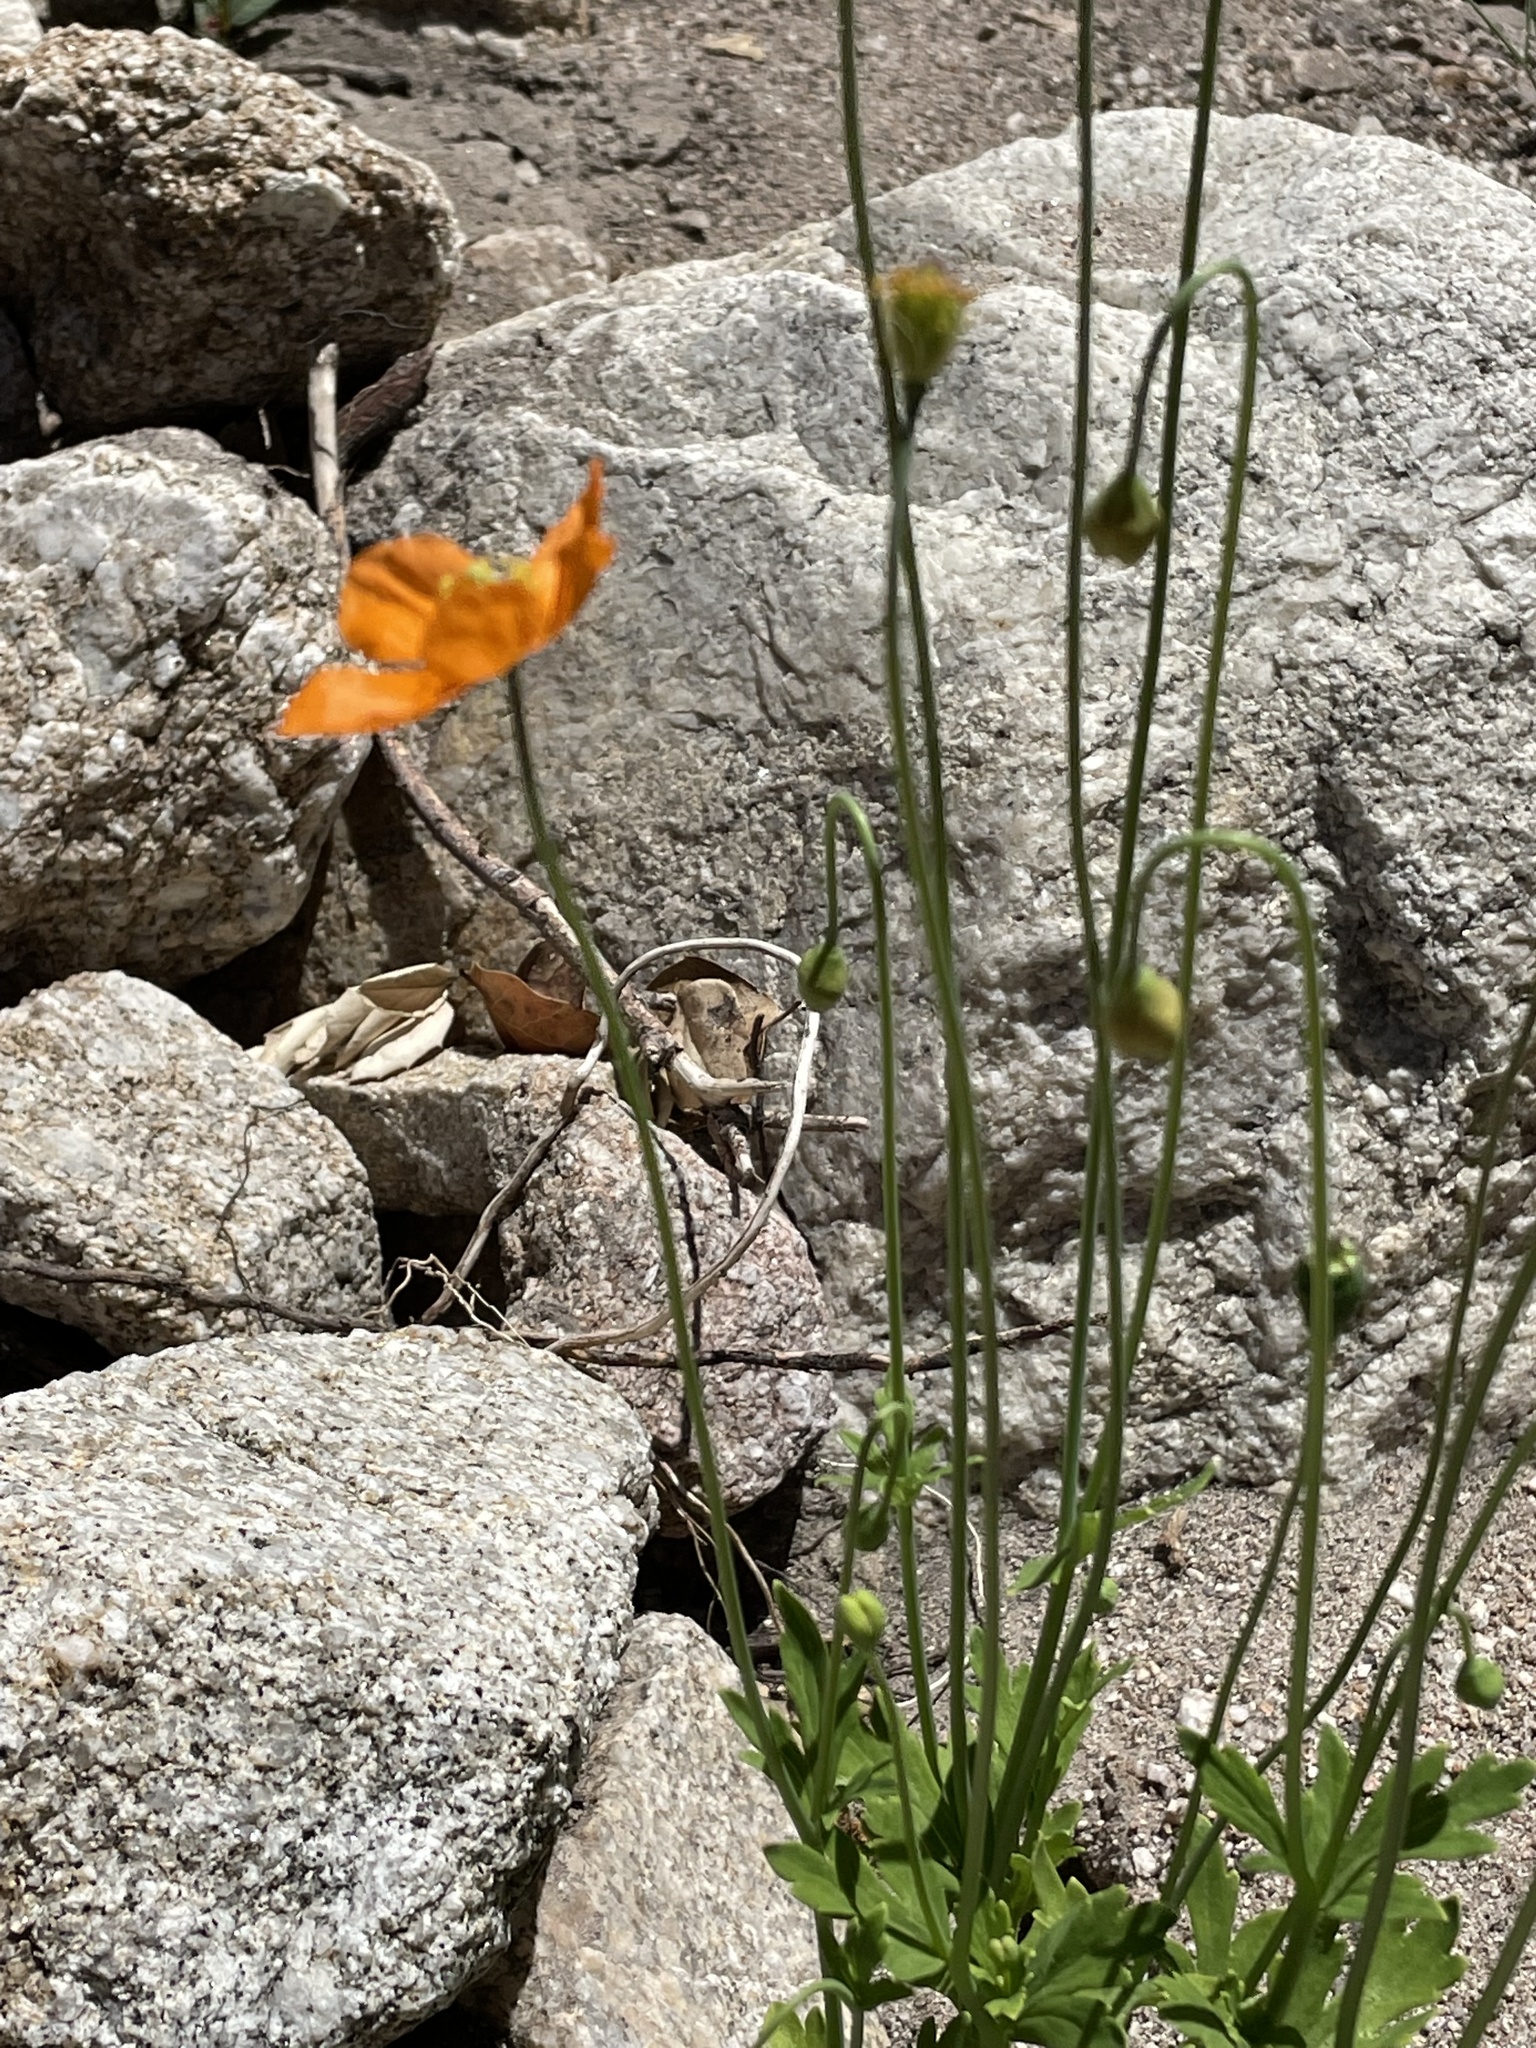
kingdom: Plantae
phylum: Tracheophyta
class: Magnoliopsida
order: Ranunculales
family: Papaveraceae
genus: Papaver
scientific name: Papaver californicum
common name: Fire poppy
